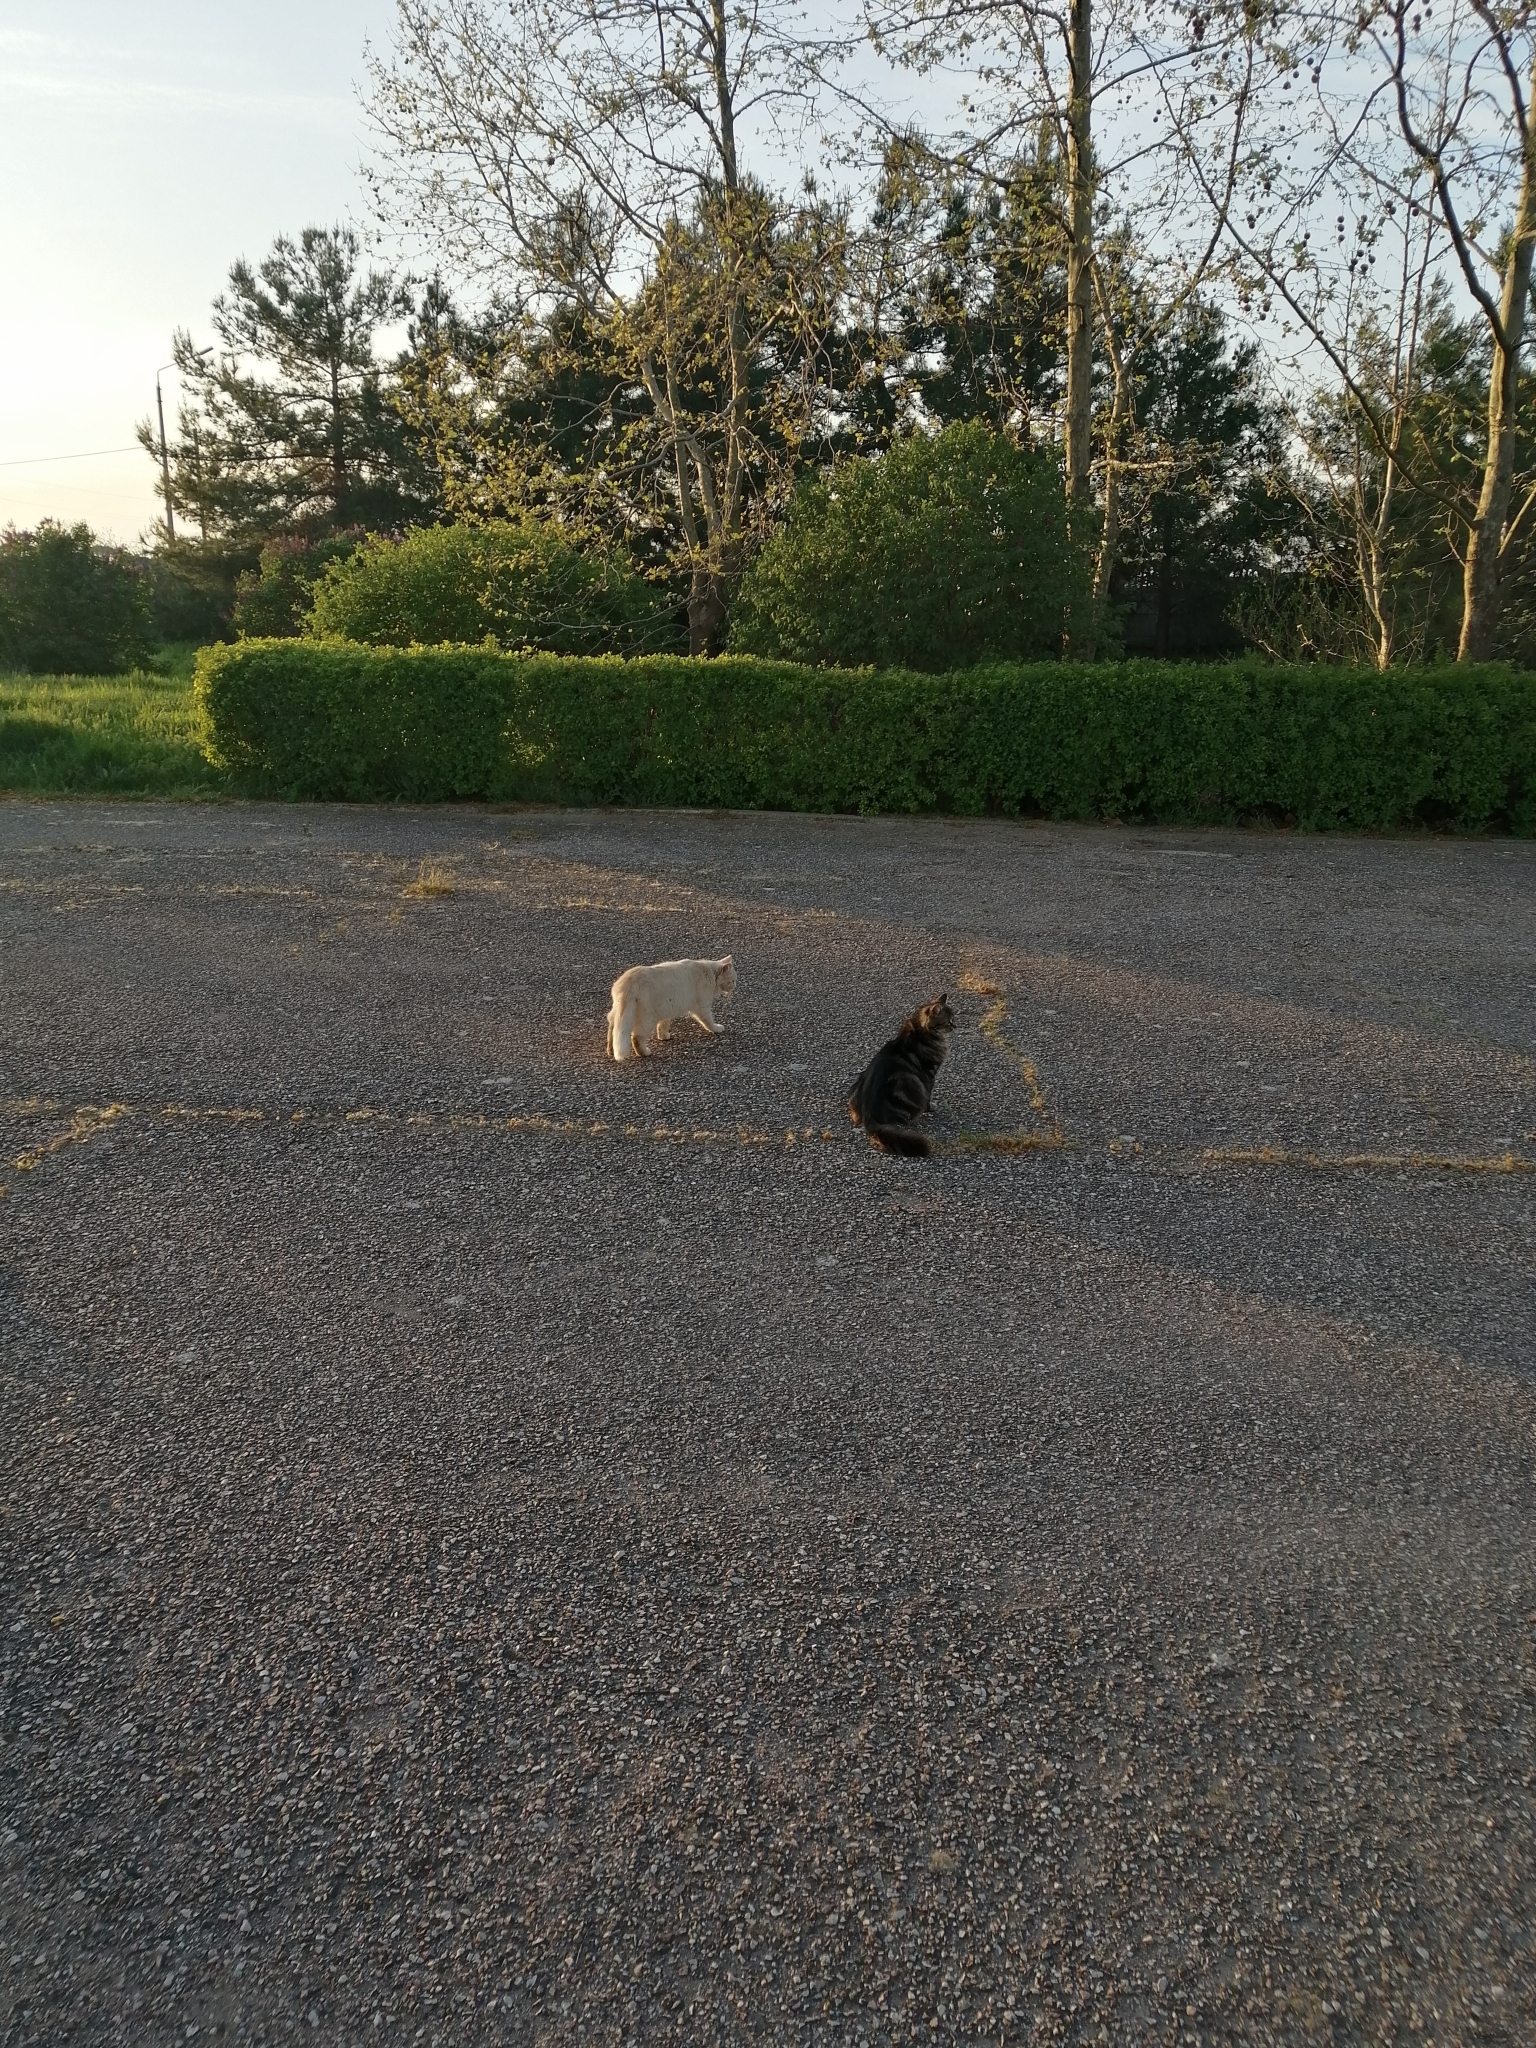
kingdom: Animalia
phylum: Chordata
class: Mammalia
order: Carnivora
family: Felidae
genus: Felis
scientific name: Felis catus
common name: Domestic cat
